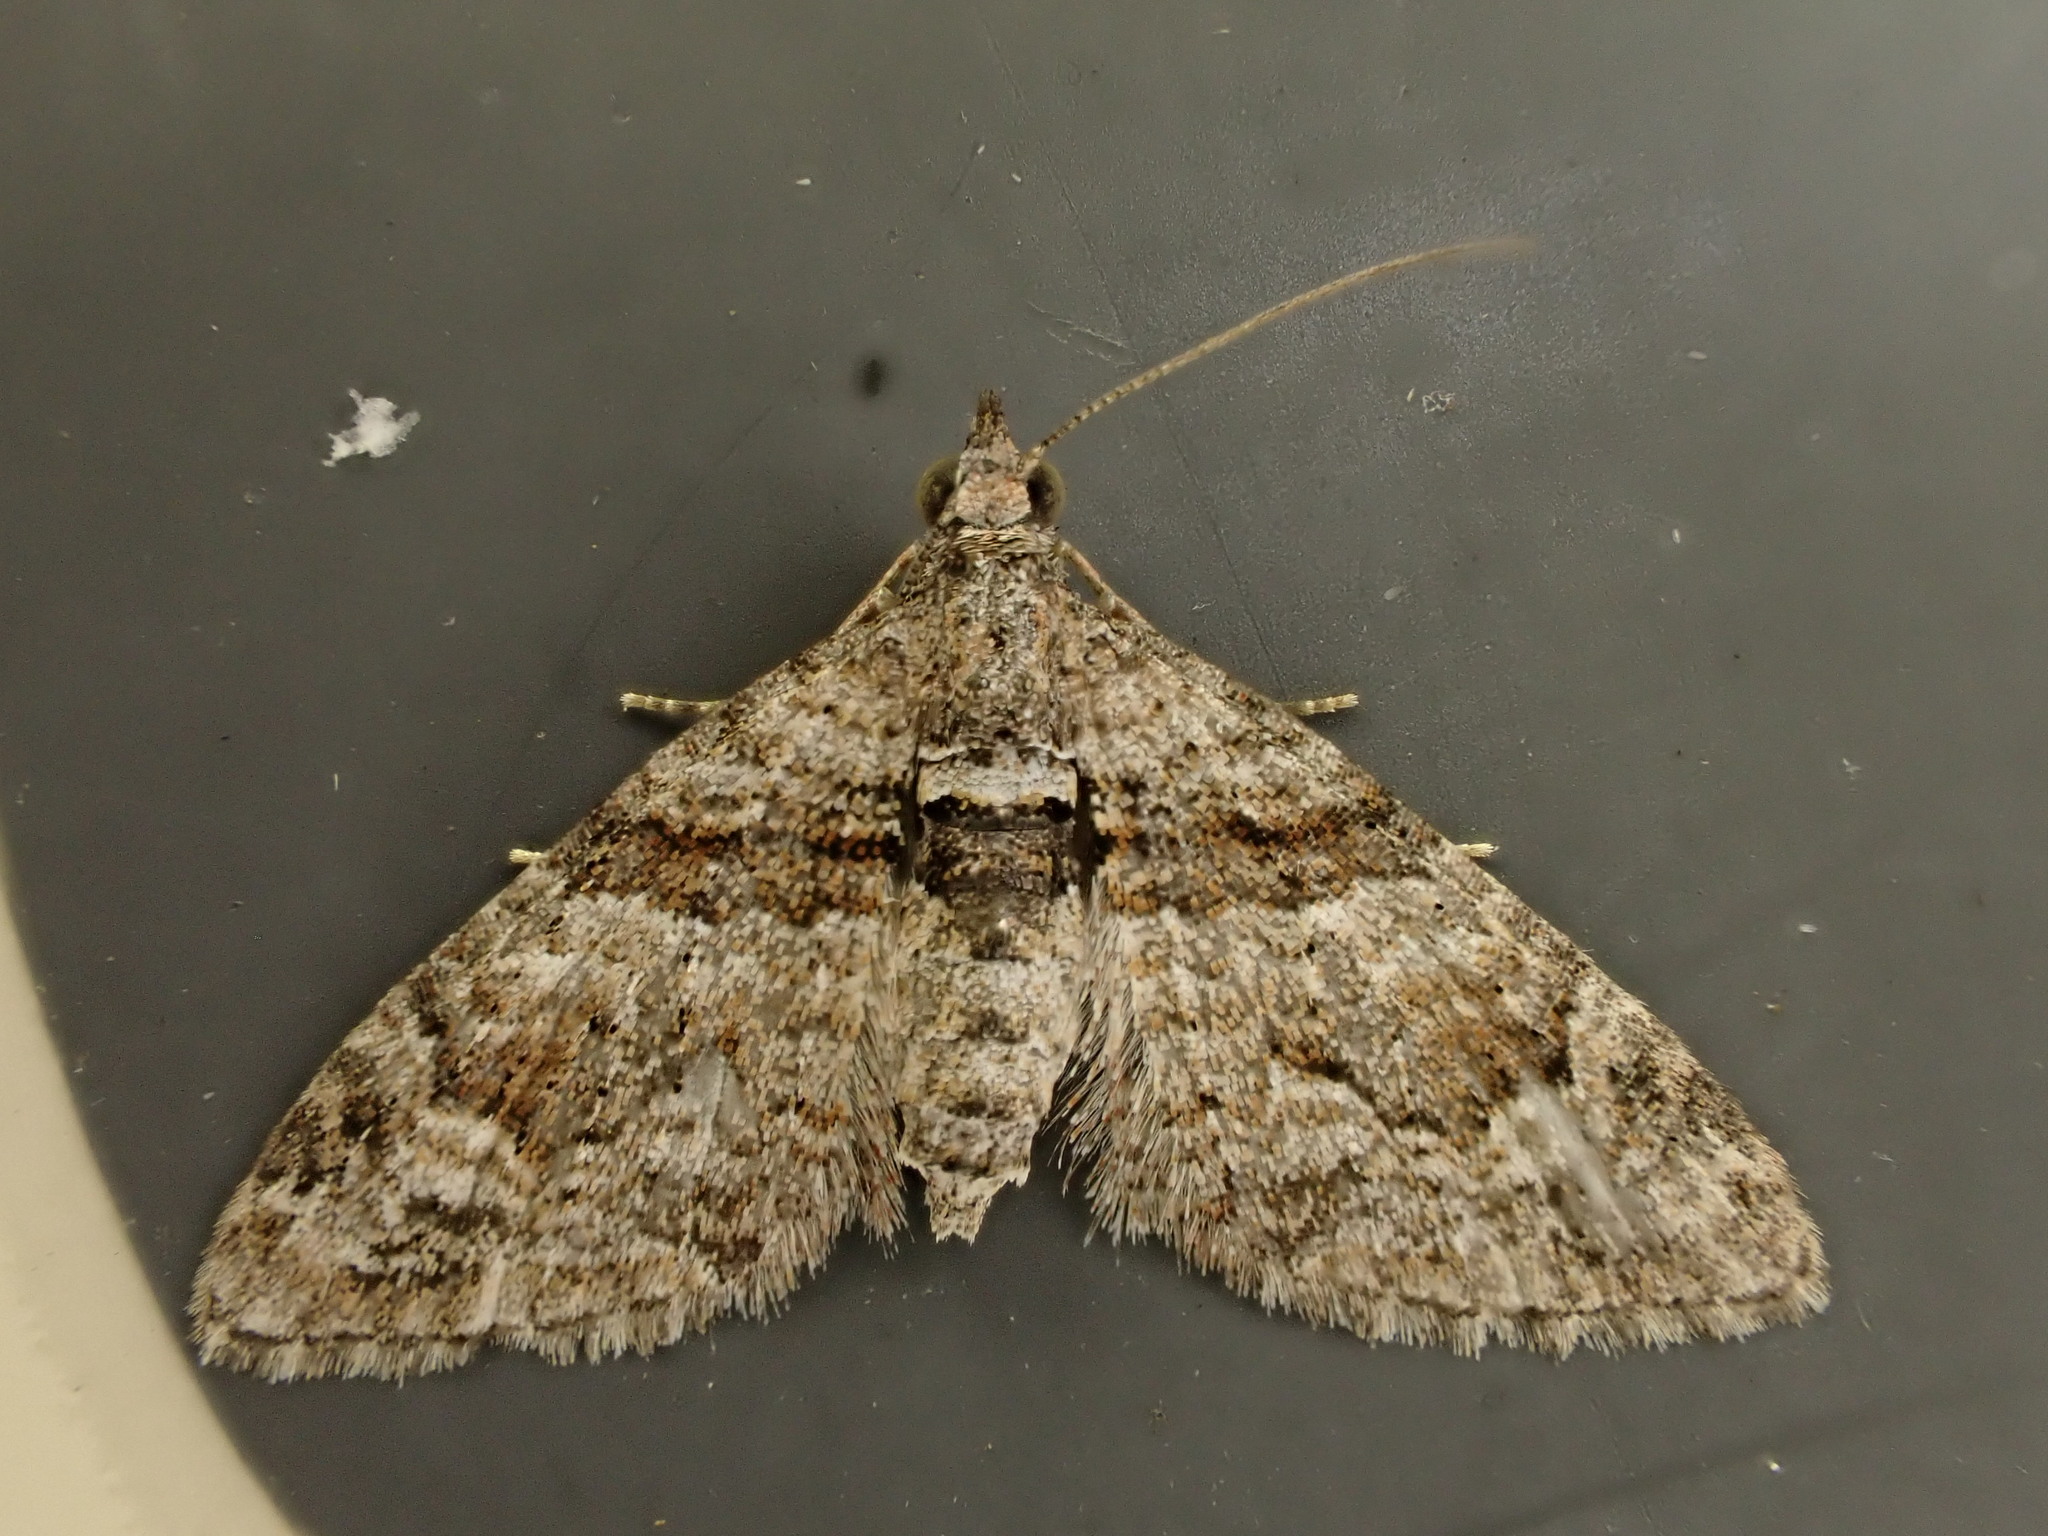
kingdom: Animalia
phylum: Arthropoda
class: Insecta
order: Lepidoptera
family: Geometridae
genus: Phrissogonus
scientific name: Phrissogonus laticostata
